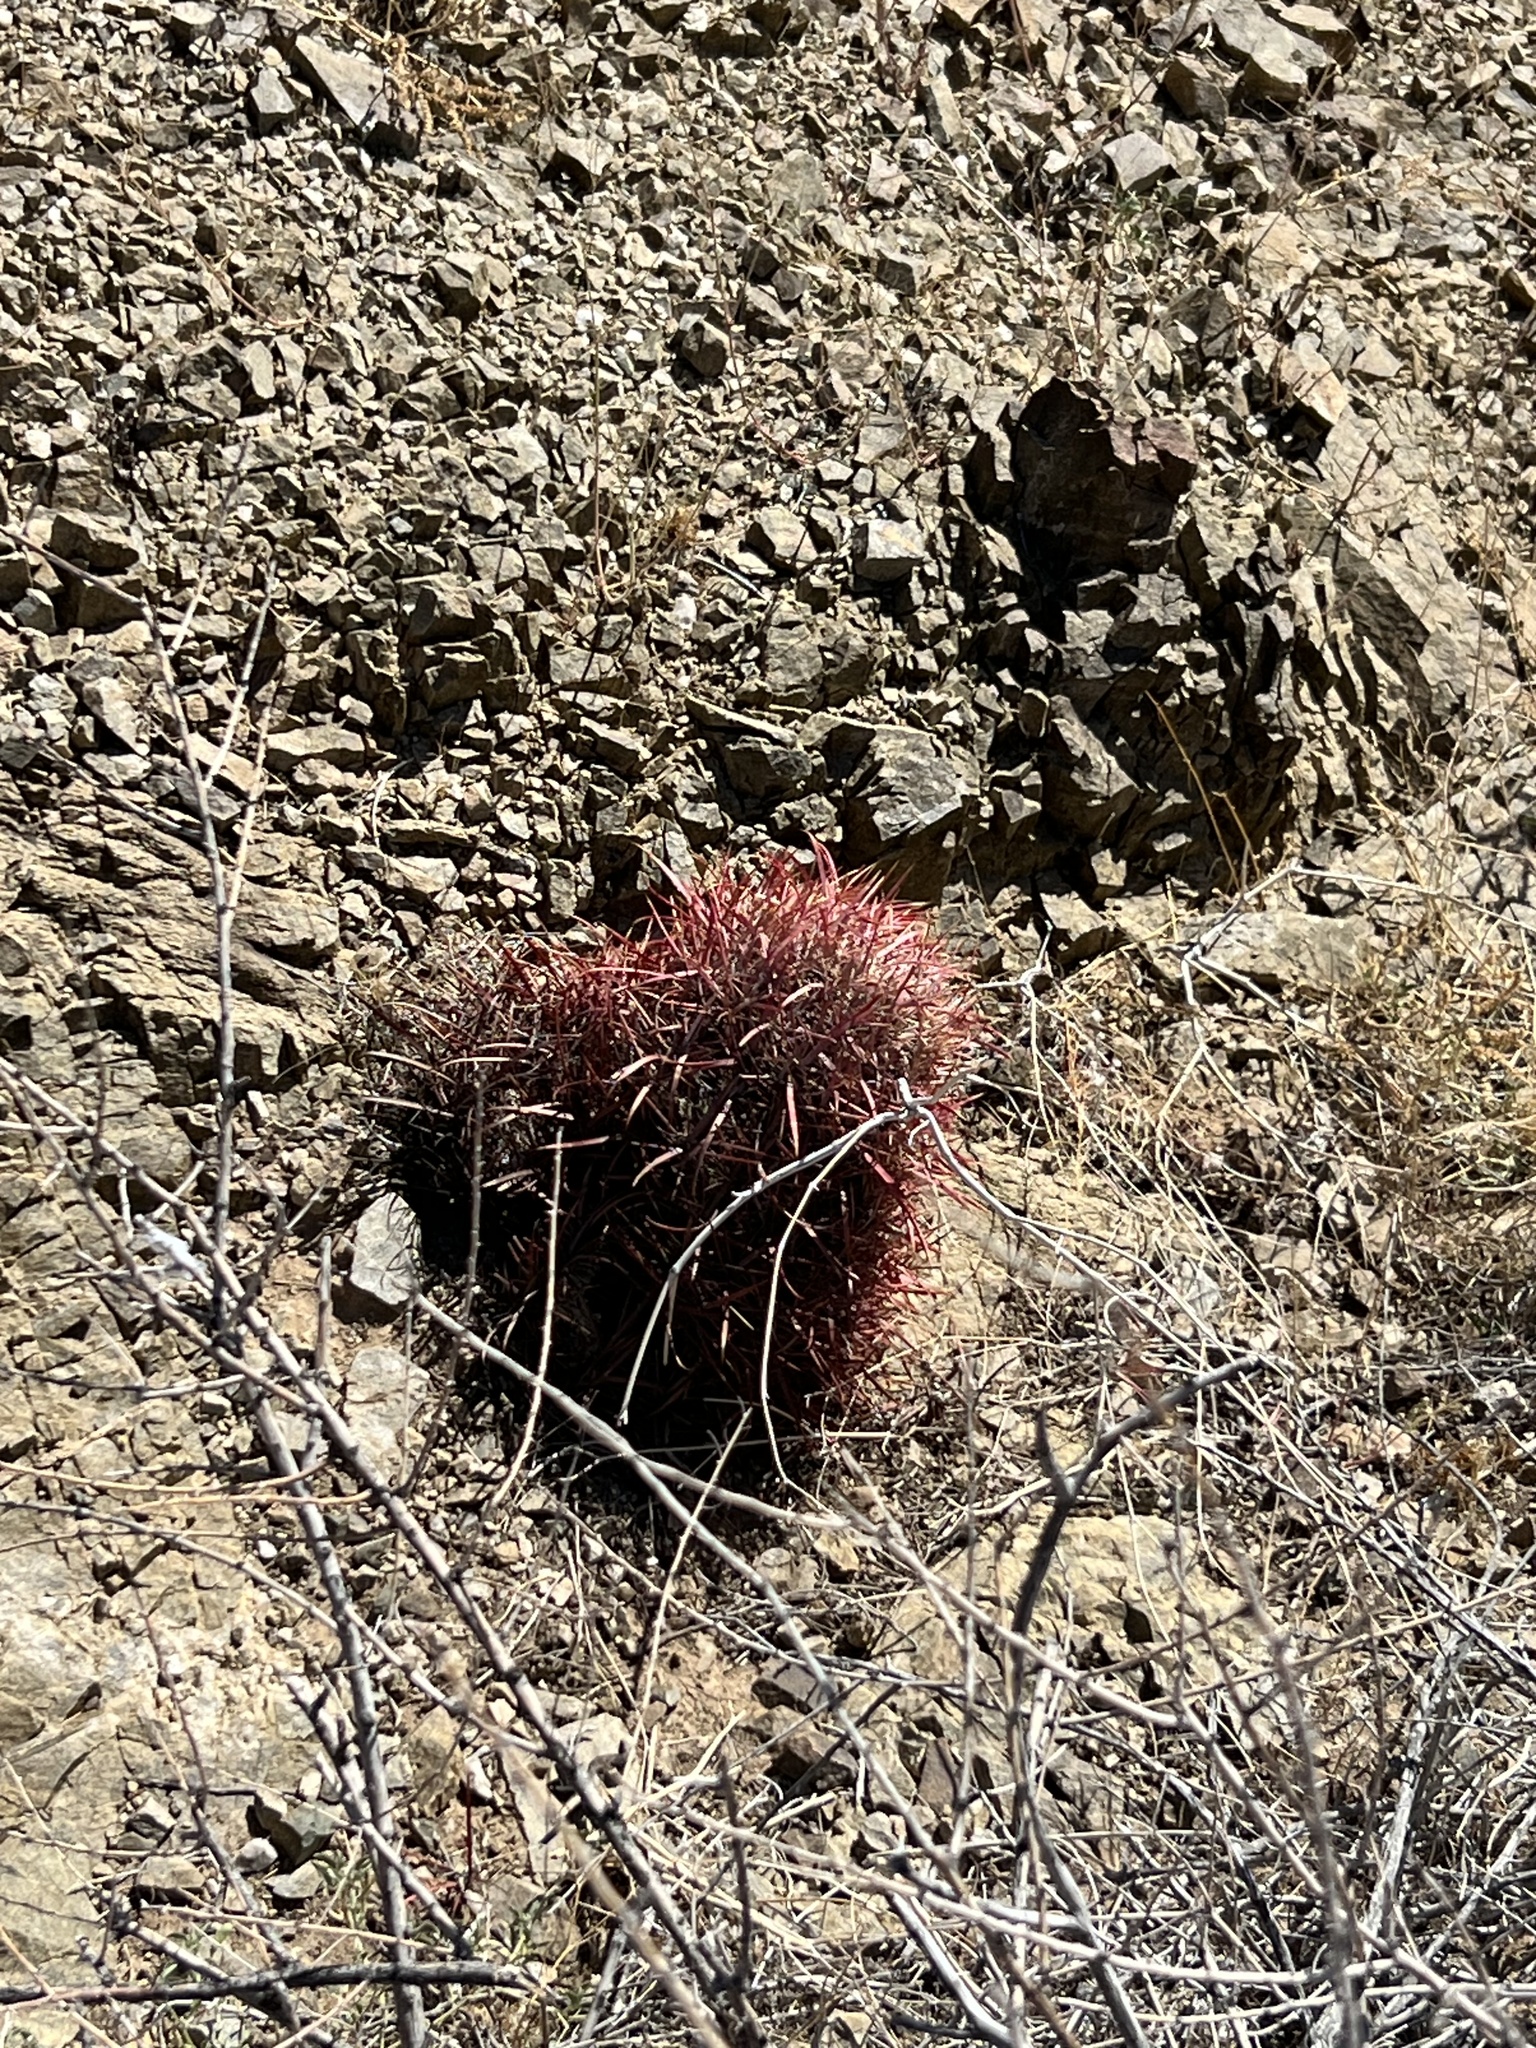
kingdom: Plantae
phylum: Tracheophyta
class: Magnoliopsida
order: Caryophyllales
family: Cactaceae
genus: Ferocactus
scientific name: Ferocactus cylindraceus
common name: California barrel cactus
